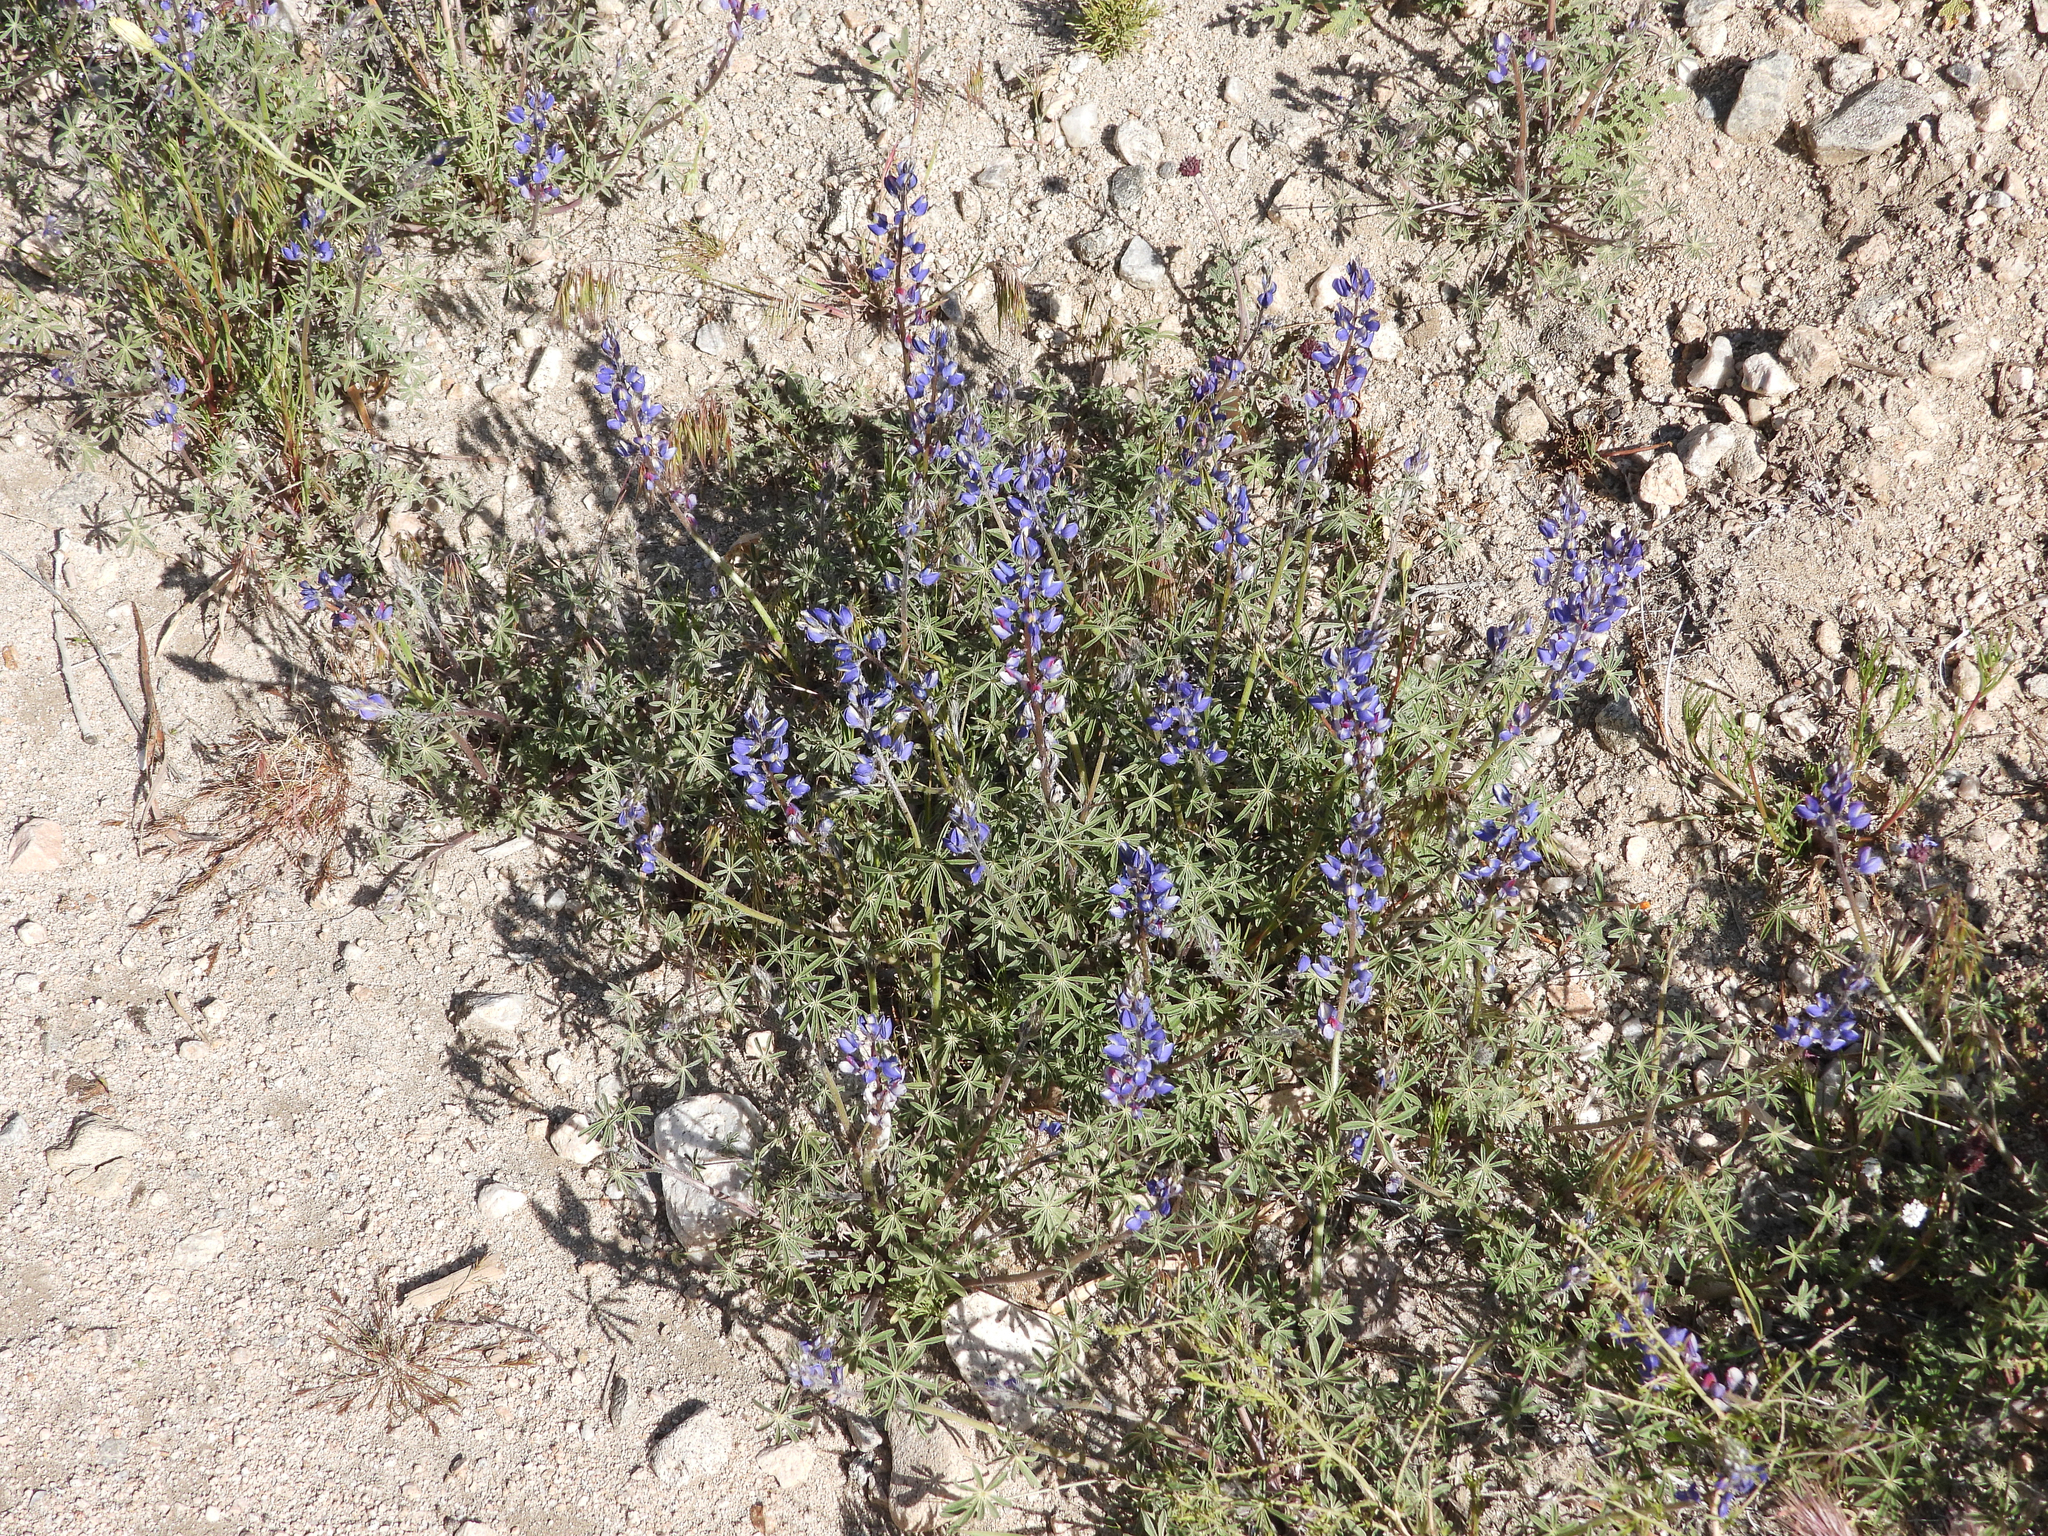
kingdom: Plantae
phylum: Tracheophyta
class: Magnoliopsida
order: Fabales
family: Fabaceae
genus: Lupinus
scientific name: Lupinus sparsiflorus
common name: Coulter's lupine
